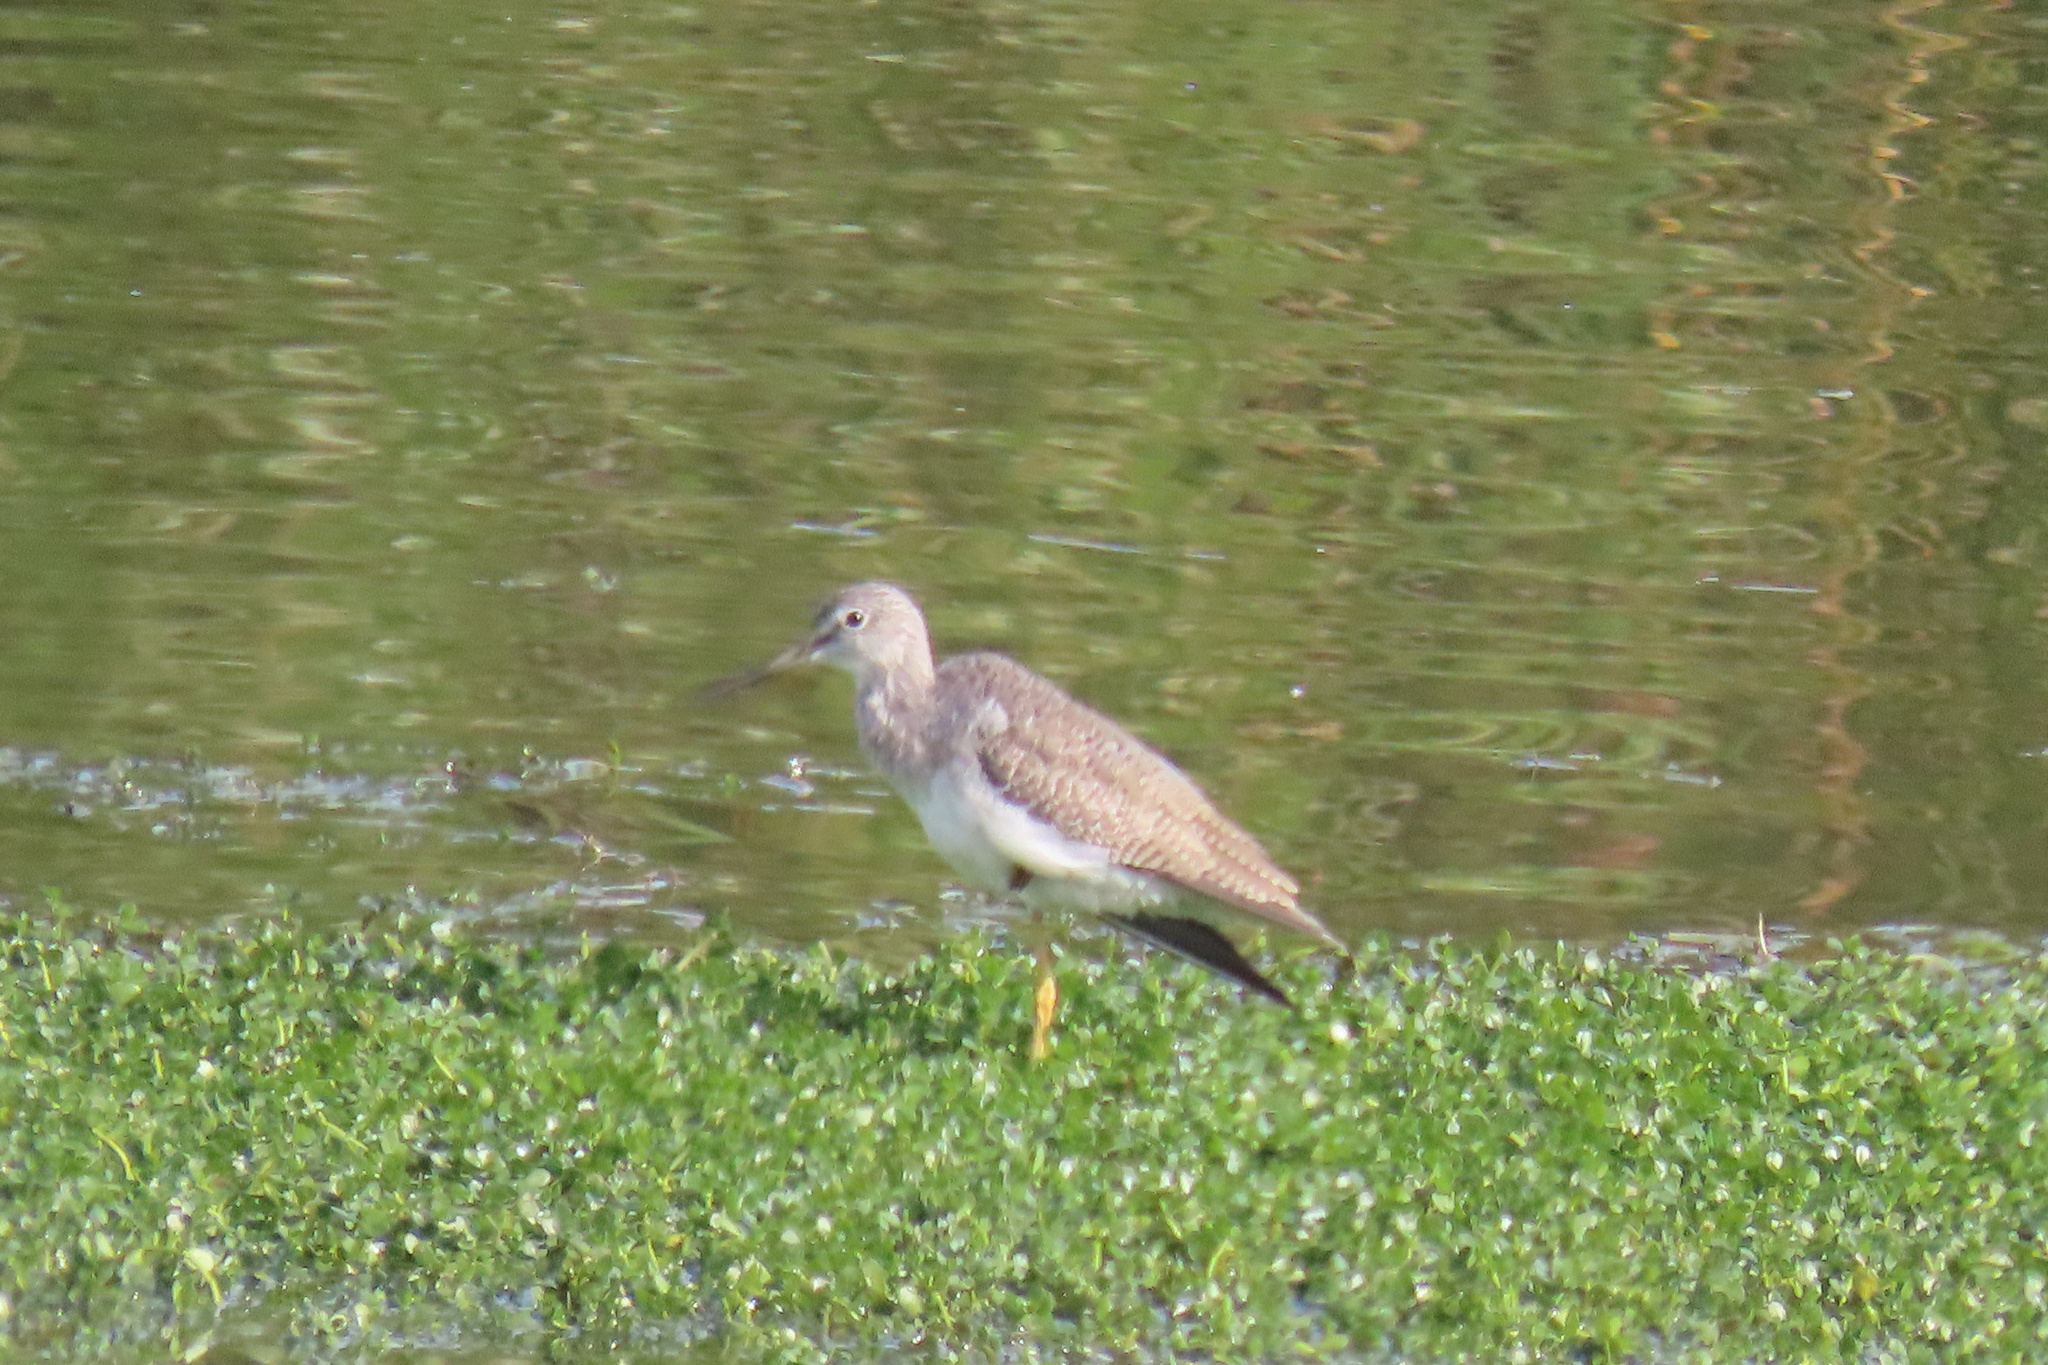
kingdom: Animalia
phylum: Chordata
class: Aves
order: Charadriiformes
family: Scolopacidae
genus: Tringa
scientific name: Tringa melanoleuca
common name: Greater yellowlegs
